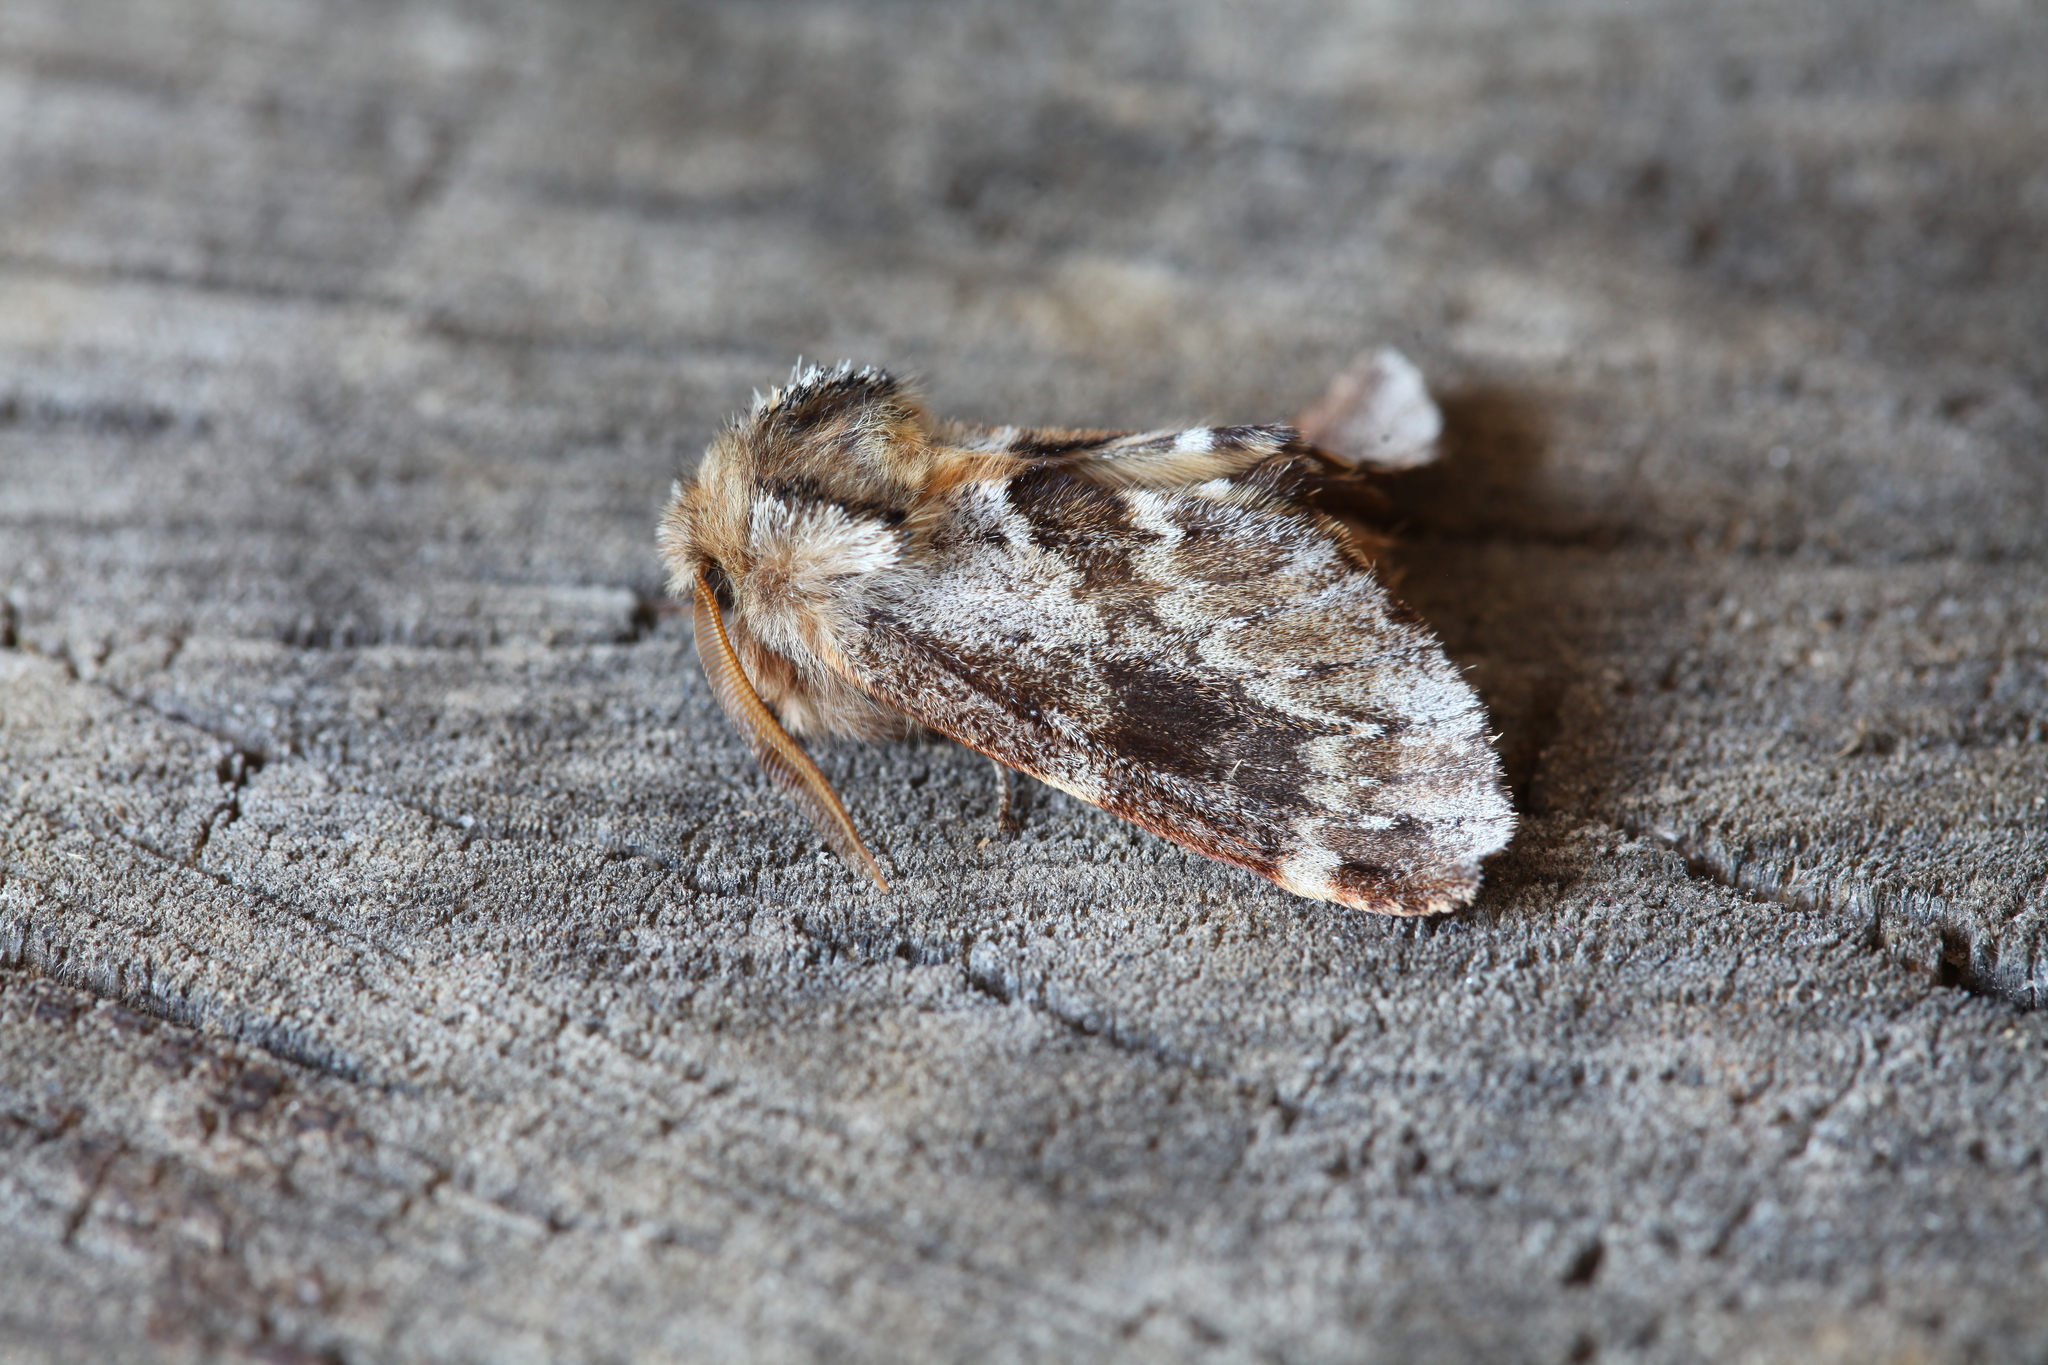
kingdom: Animalia
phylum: Arthropoda
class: Insecta
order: Lepidoptera
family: Notodontidae
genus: Odontosia
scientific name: Odontosia sieversii
